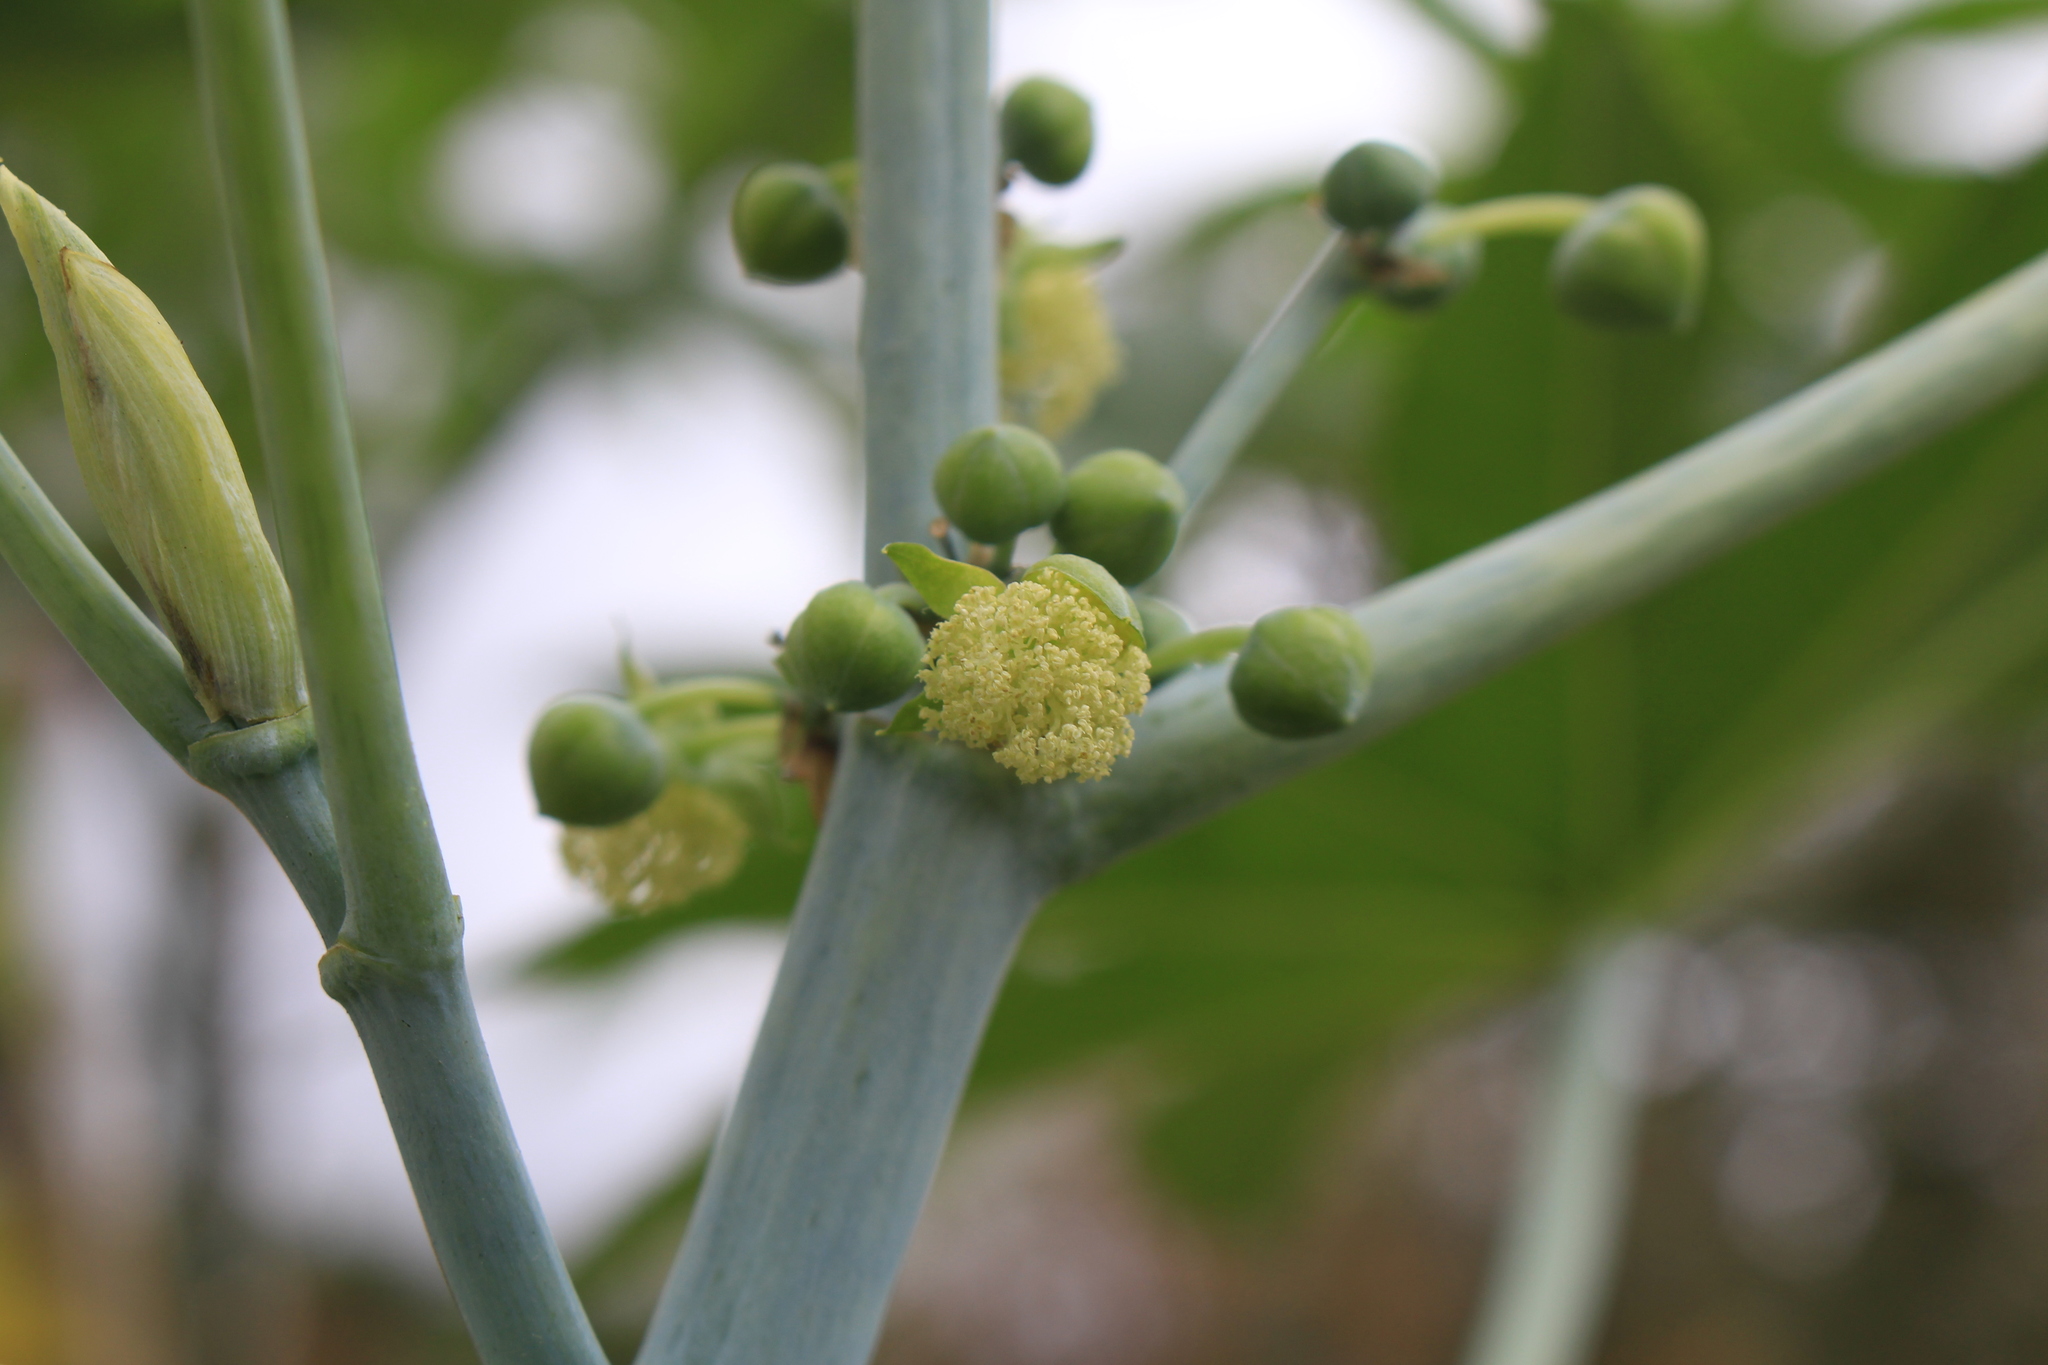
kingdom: Plantae
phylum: Tracheophyta
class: Magnoliopsida
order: Malpighiales
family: Euphorbiaceae
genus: Ricinus
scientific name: Ricinus communis
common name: Castor-oil-plant
